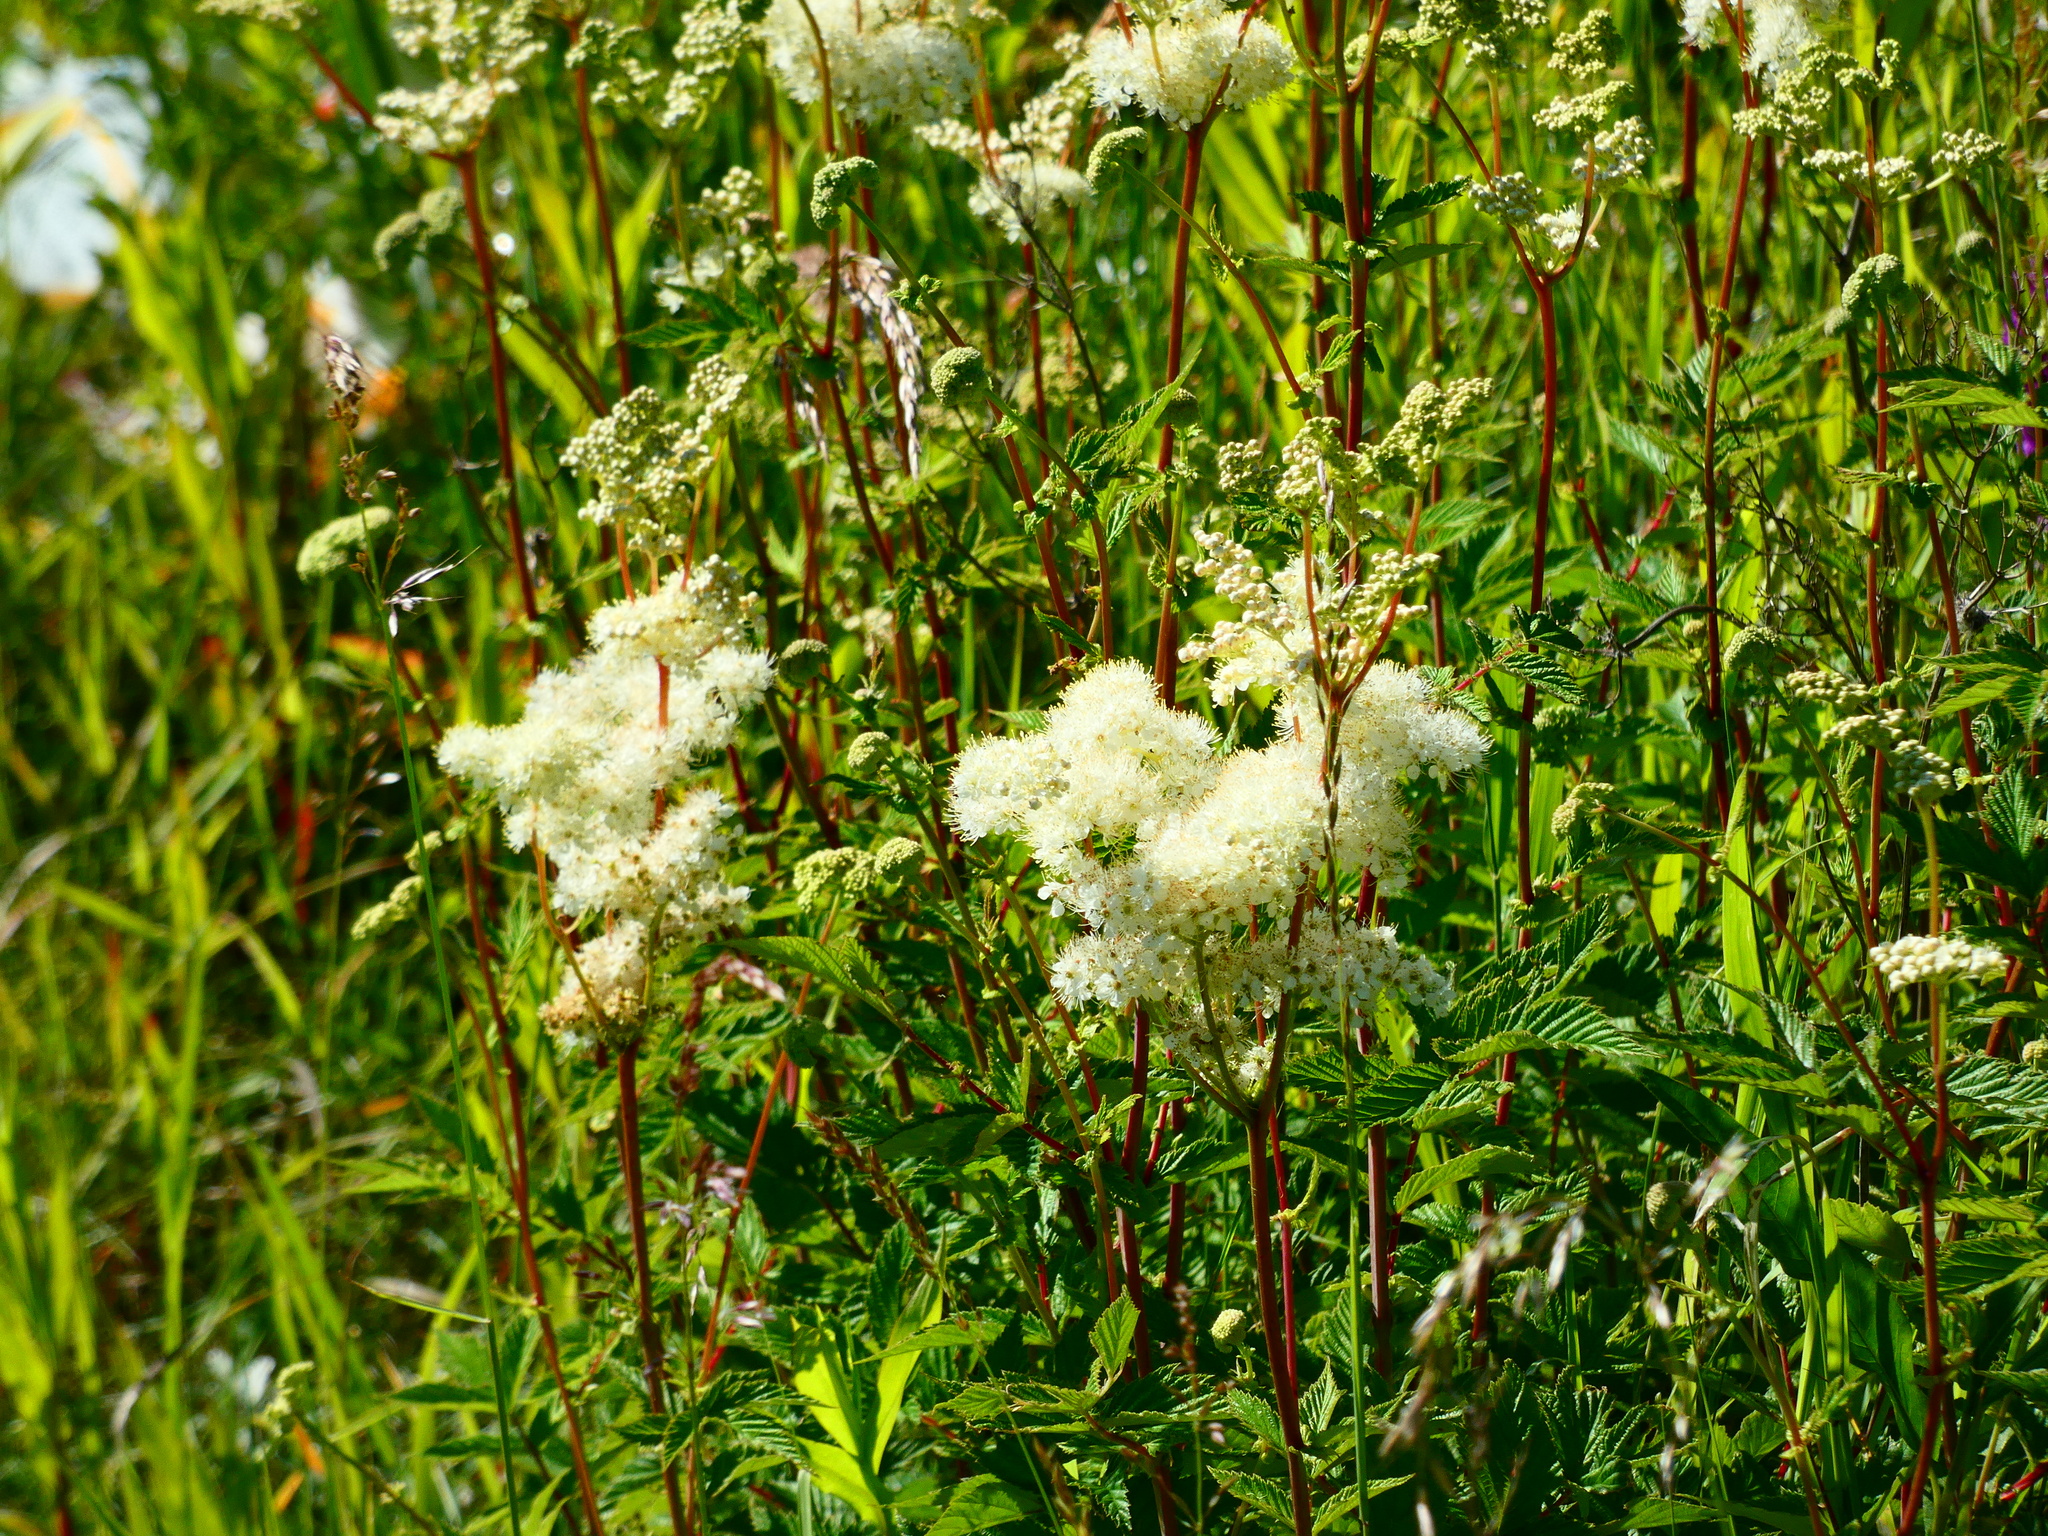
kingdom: Plantae
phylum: Tracheophyta
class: Magnoliopsida
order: Rosales
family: Rosaceae
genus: Filipendula
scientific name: Filipendula ulmaria
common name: Meadowsweet
